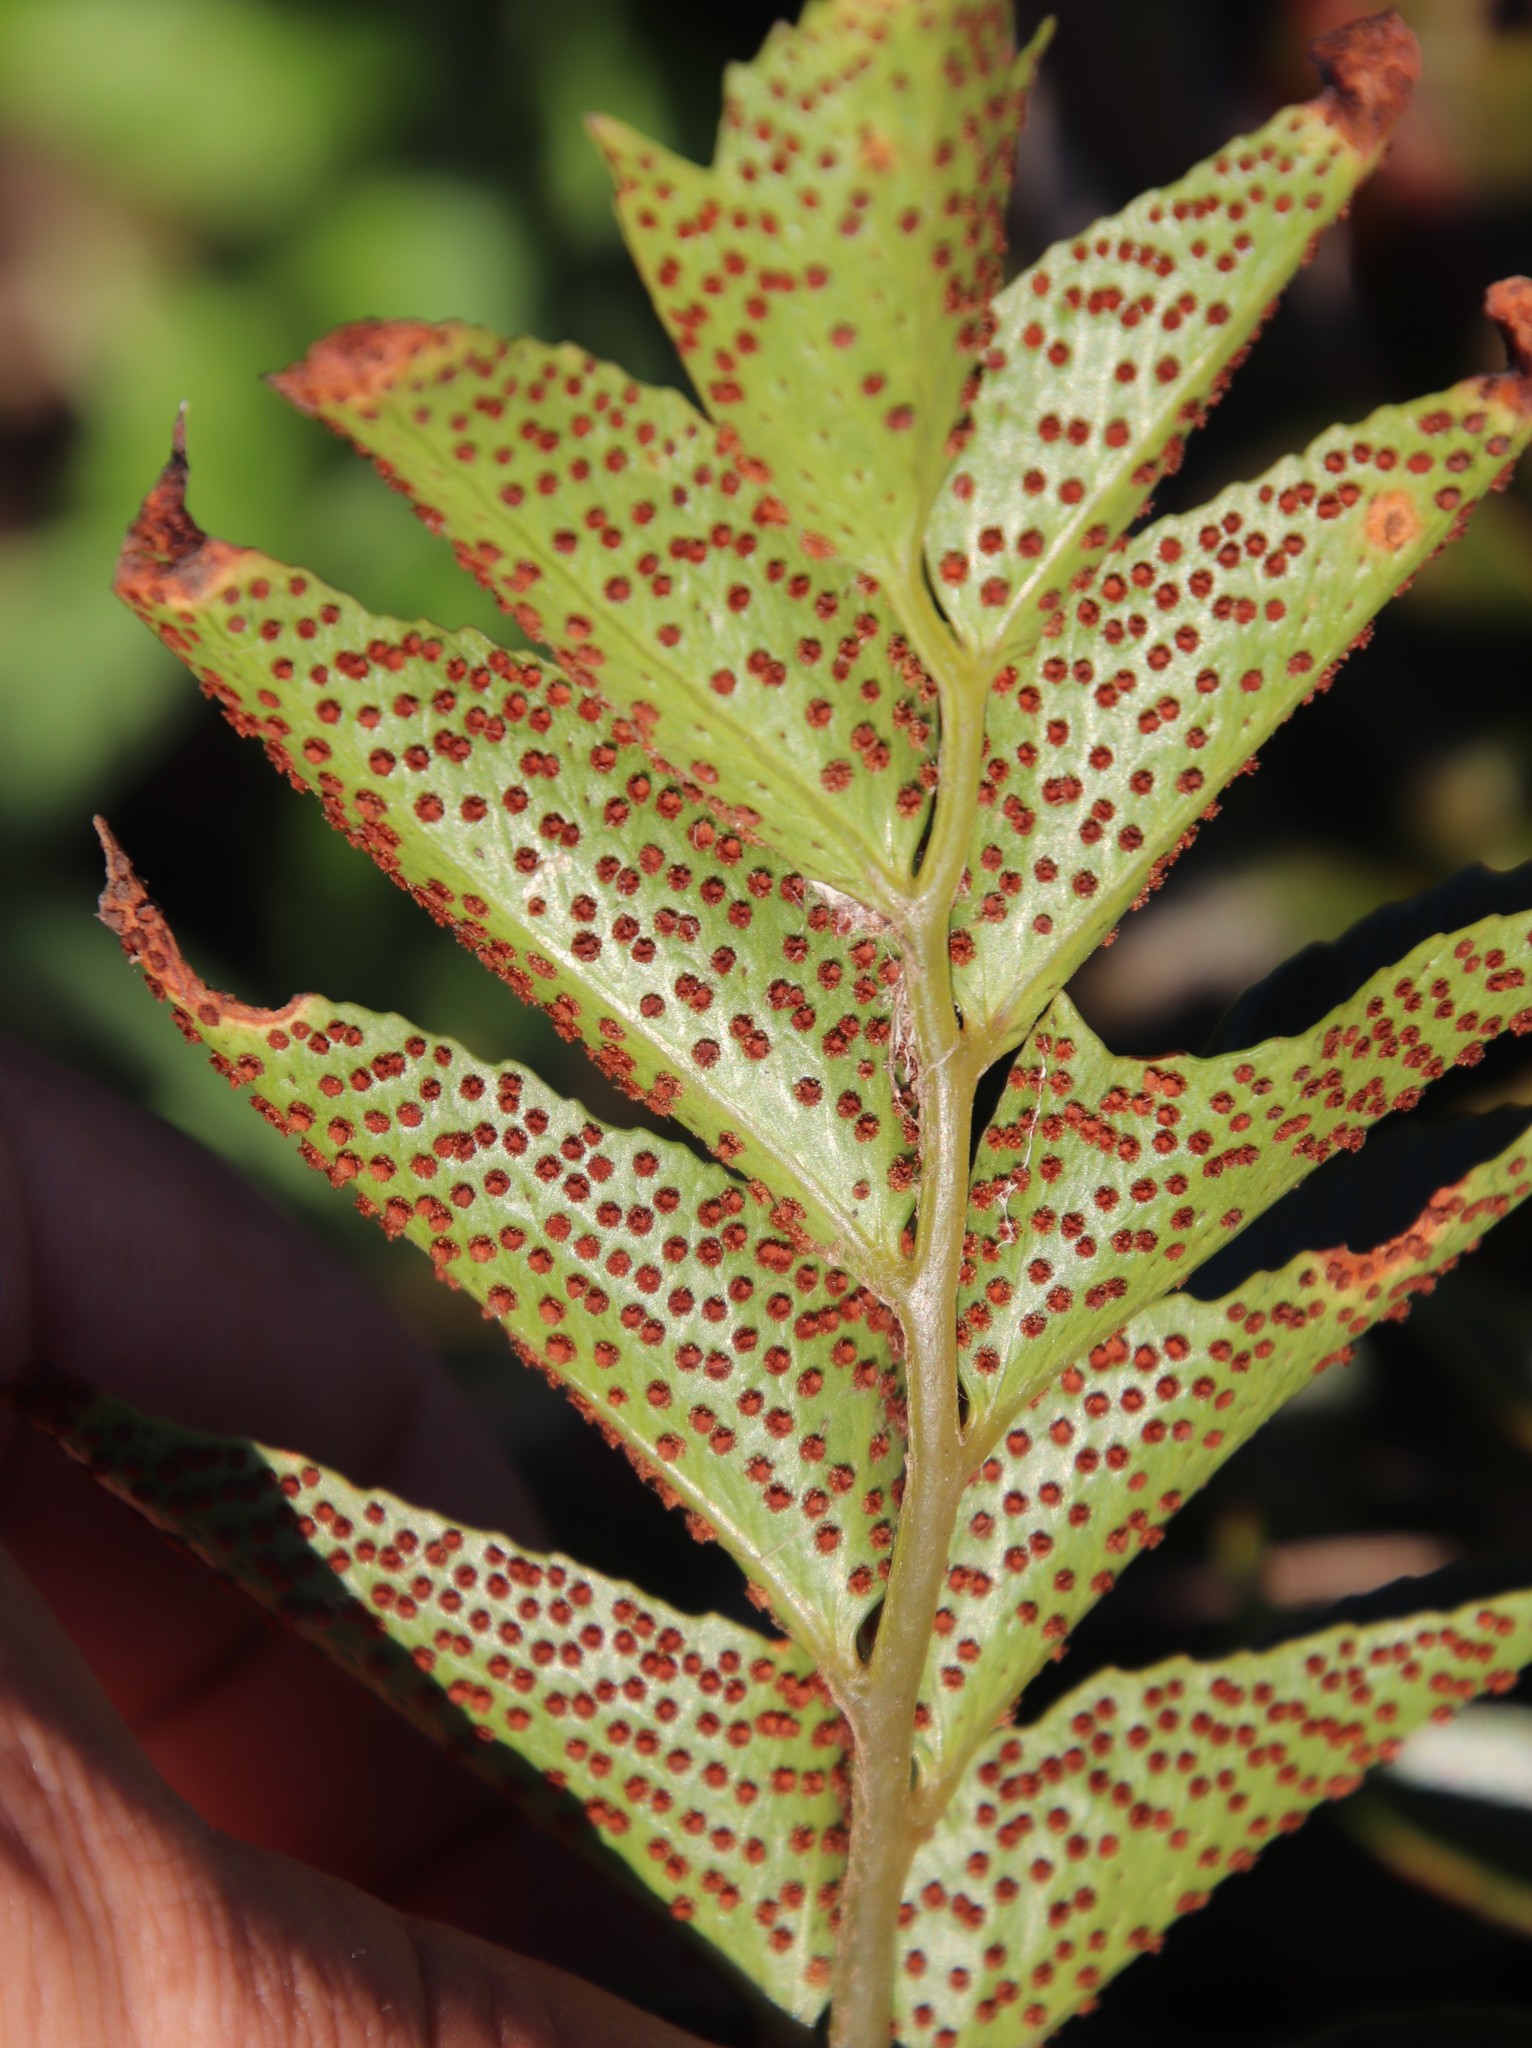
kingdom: Plantae
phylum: Tracheophyta
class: Polypodiopsida
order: Polypodiales
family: Dryopteridaceae
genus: Cyrtomium
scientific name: Cyrtomium falcatum
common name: House holly-fern
